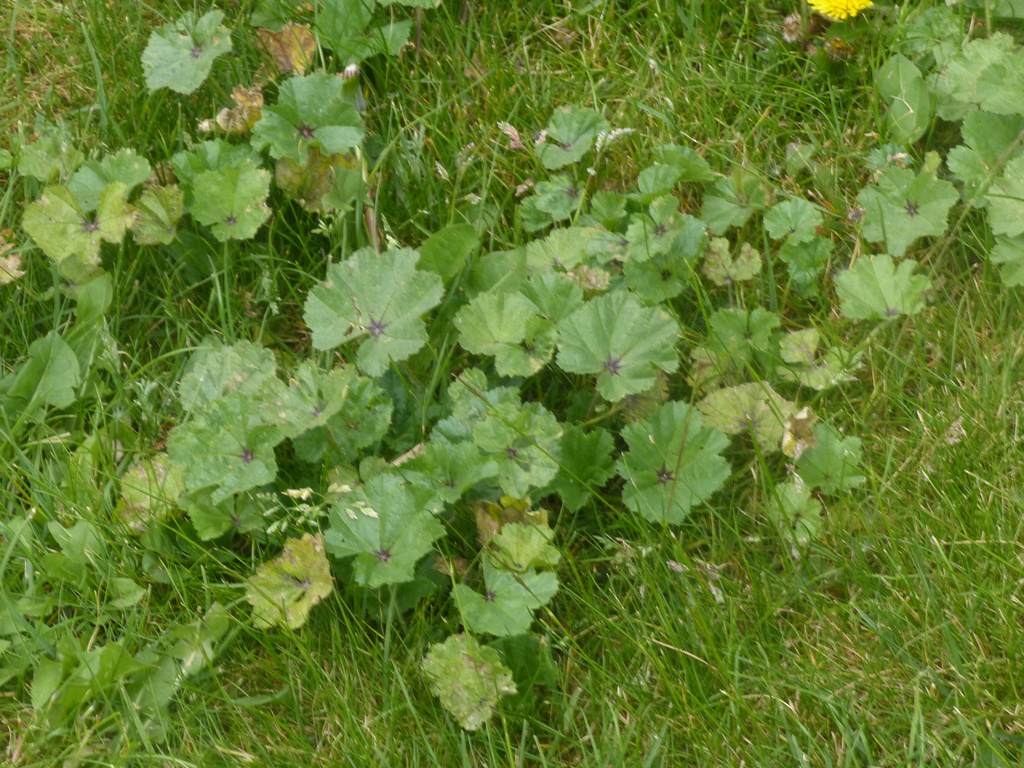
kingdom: Plantae
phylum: Tracheophyta
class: Magnoliopsida
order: Malvales
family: Malvaceae
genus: Malva
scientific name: Malva sylvestris
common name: Common mallow
